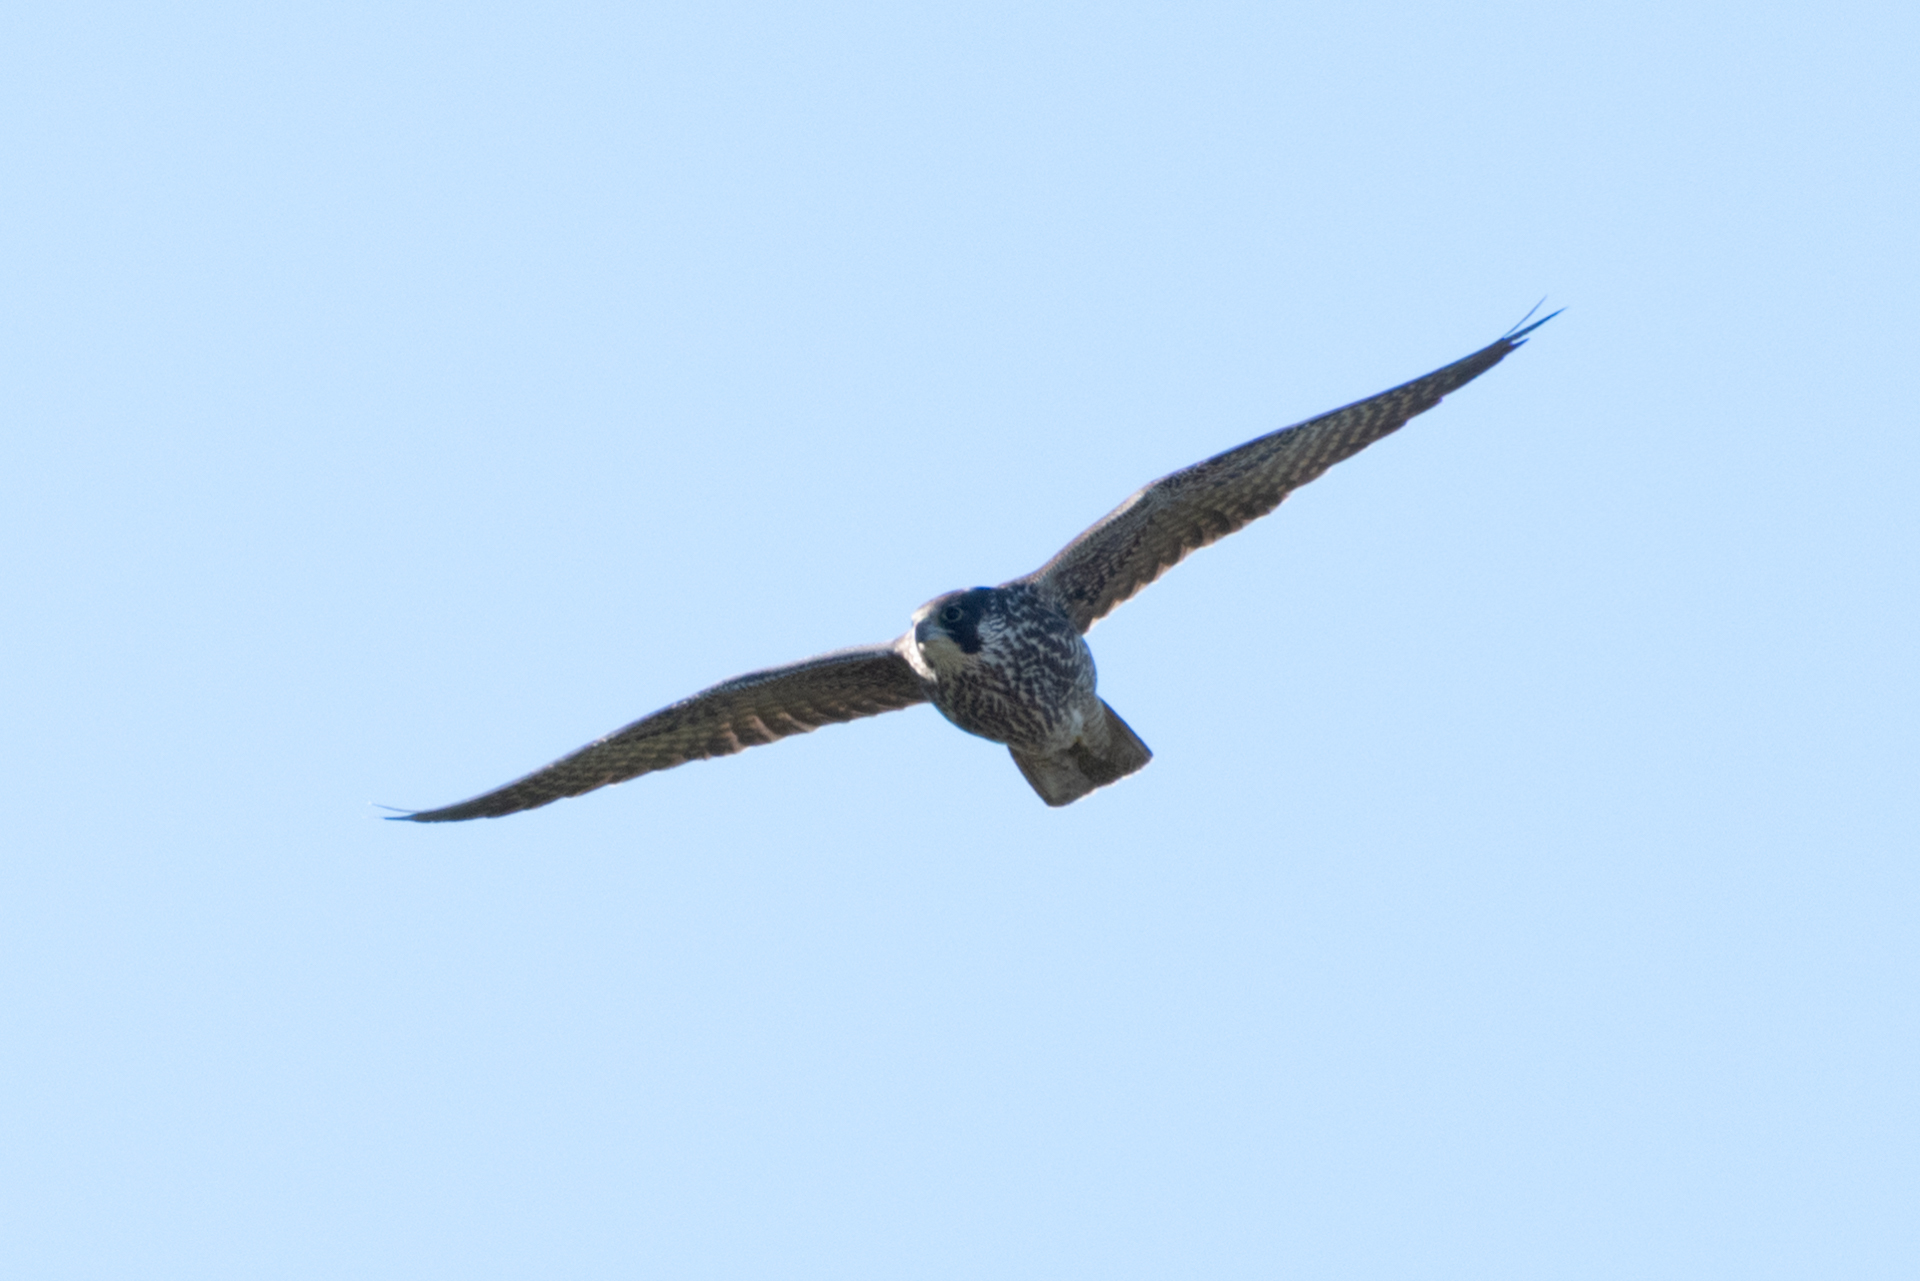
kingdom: Animalia
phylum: Chordata
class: Aves
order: Falconiformes
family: Falconidae
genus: Falco
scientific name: Falco peregrinus
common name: Peregrine falcon
